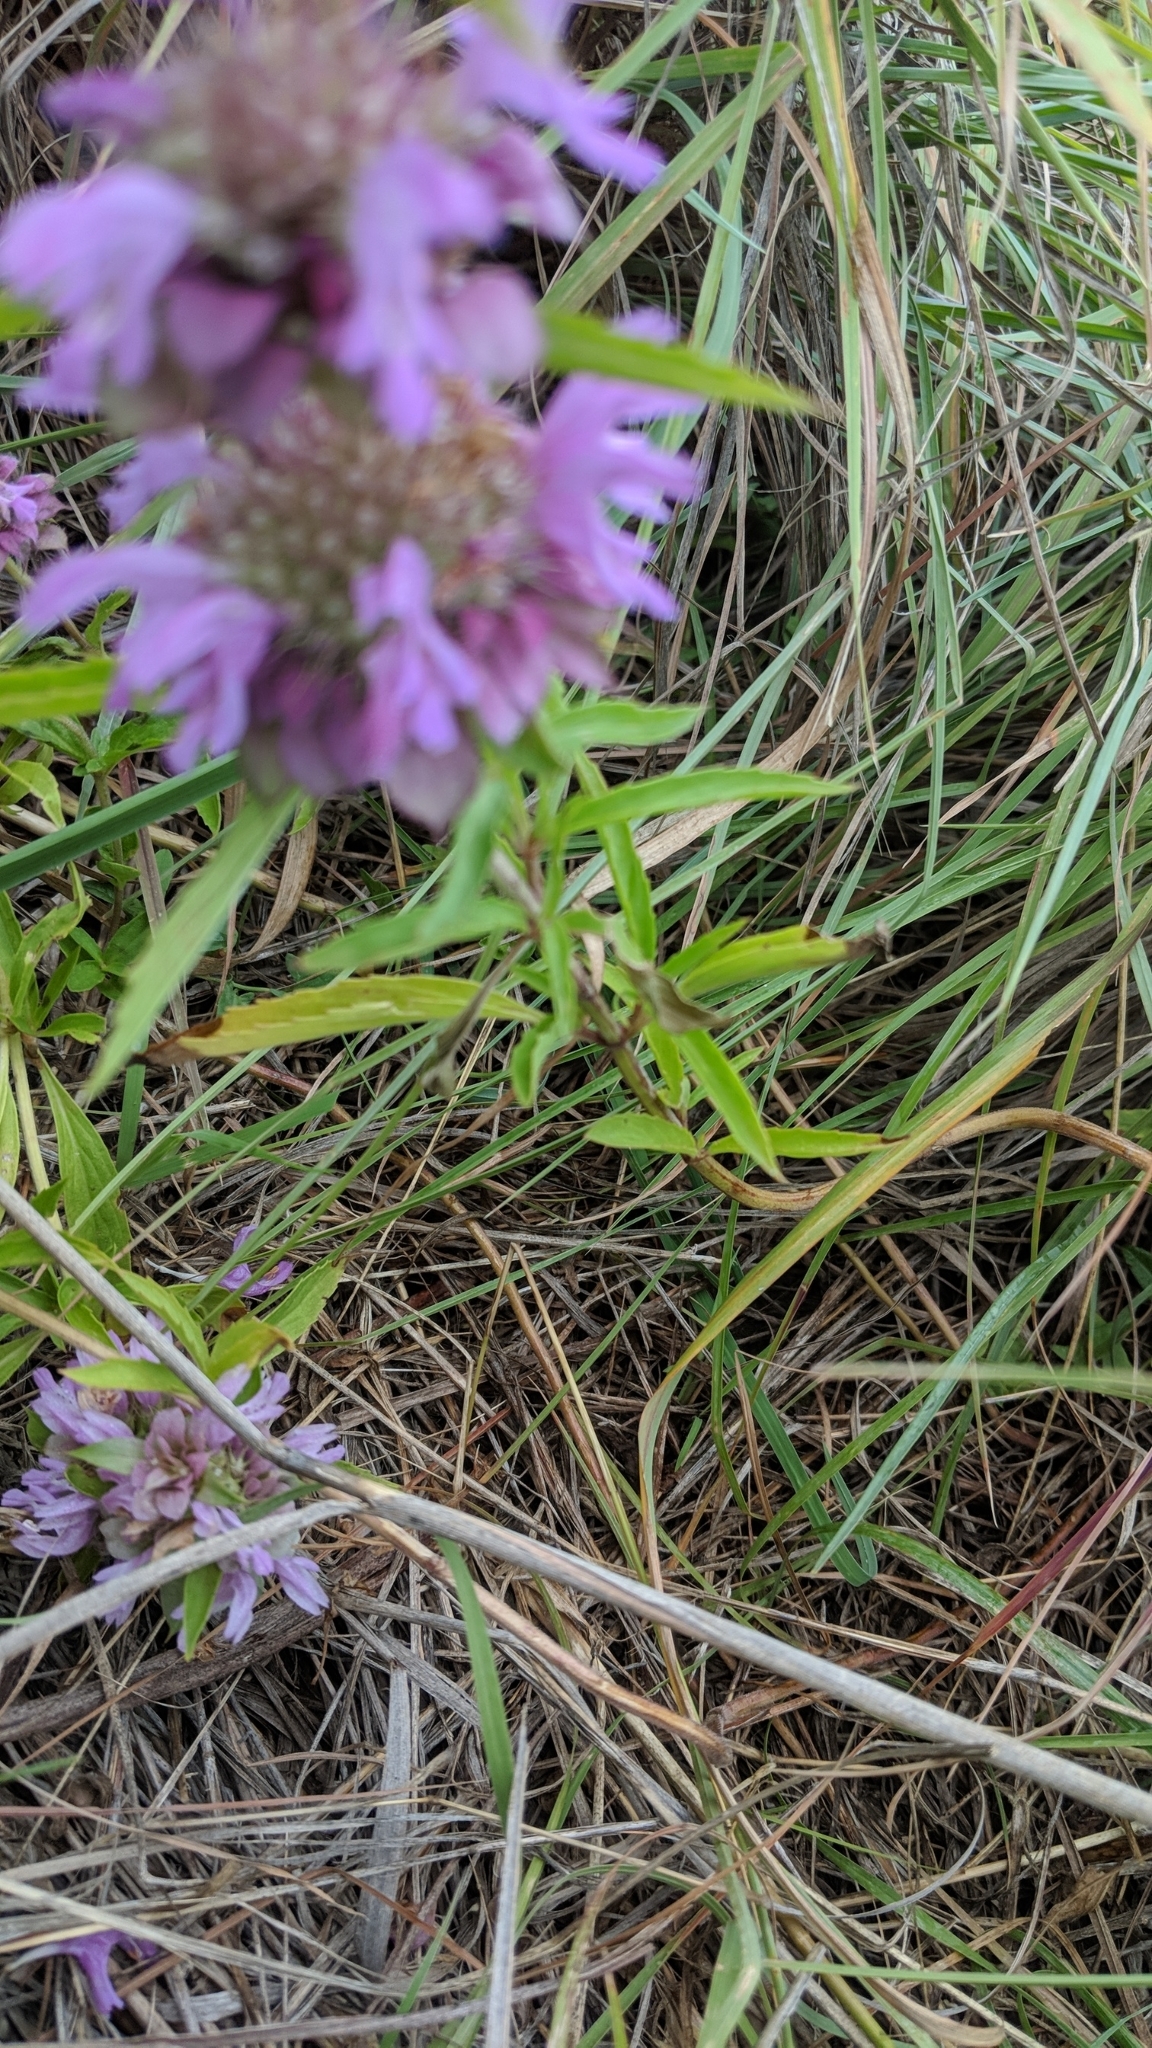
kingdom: Plantae
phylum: Tracheophyta
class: Magnoliopsida
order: Lamiales
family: Lamiaceae
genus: Monarda
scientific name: Monarda citriodora
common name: Lemon beebalm
